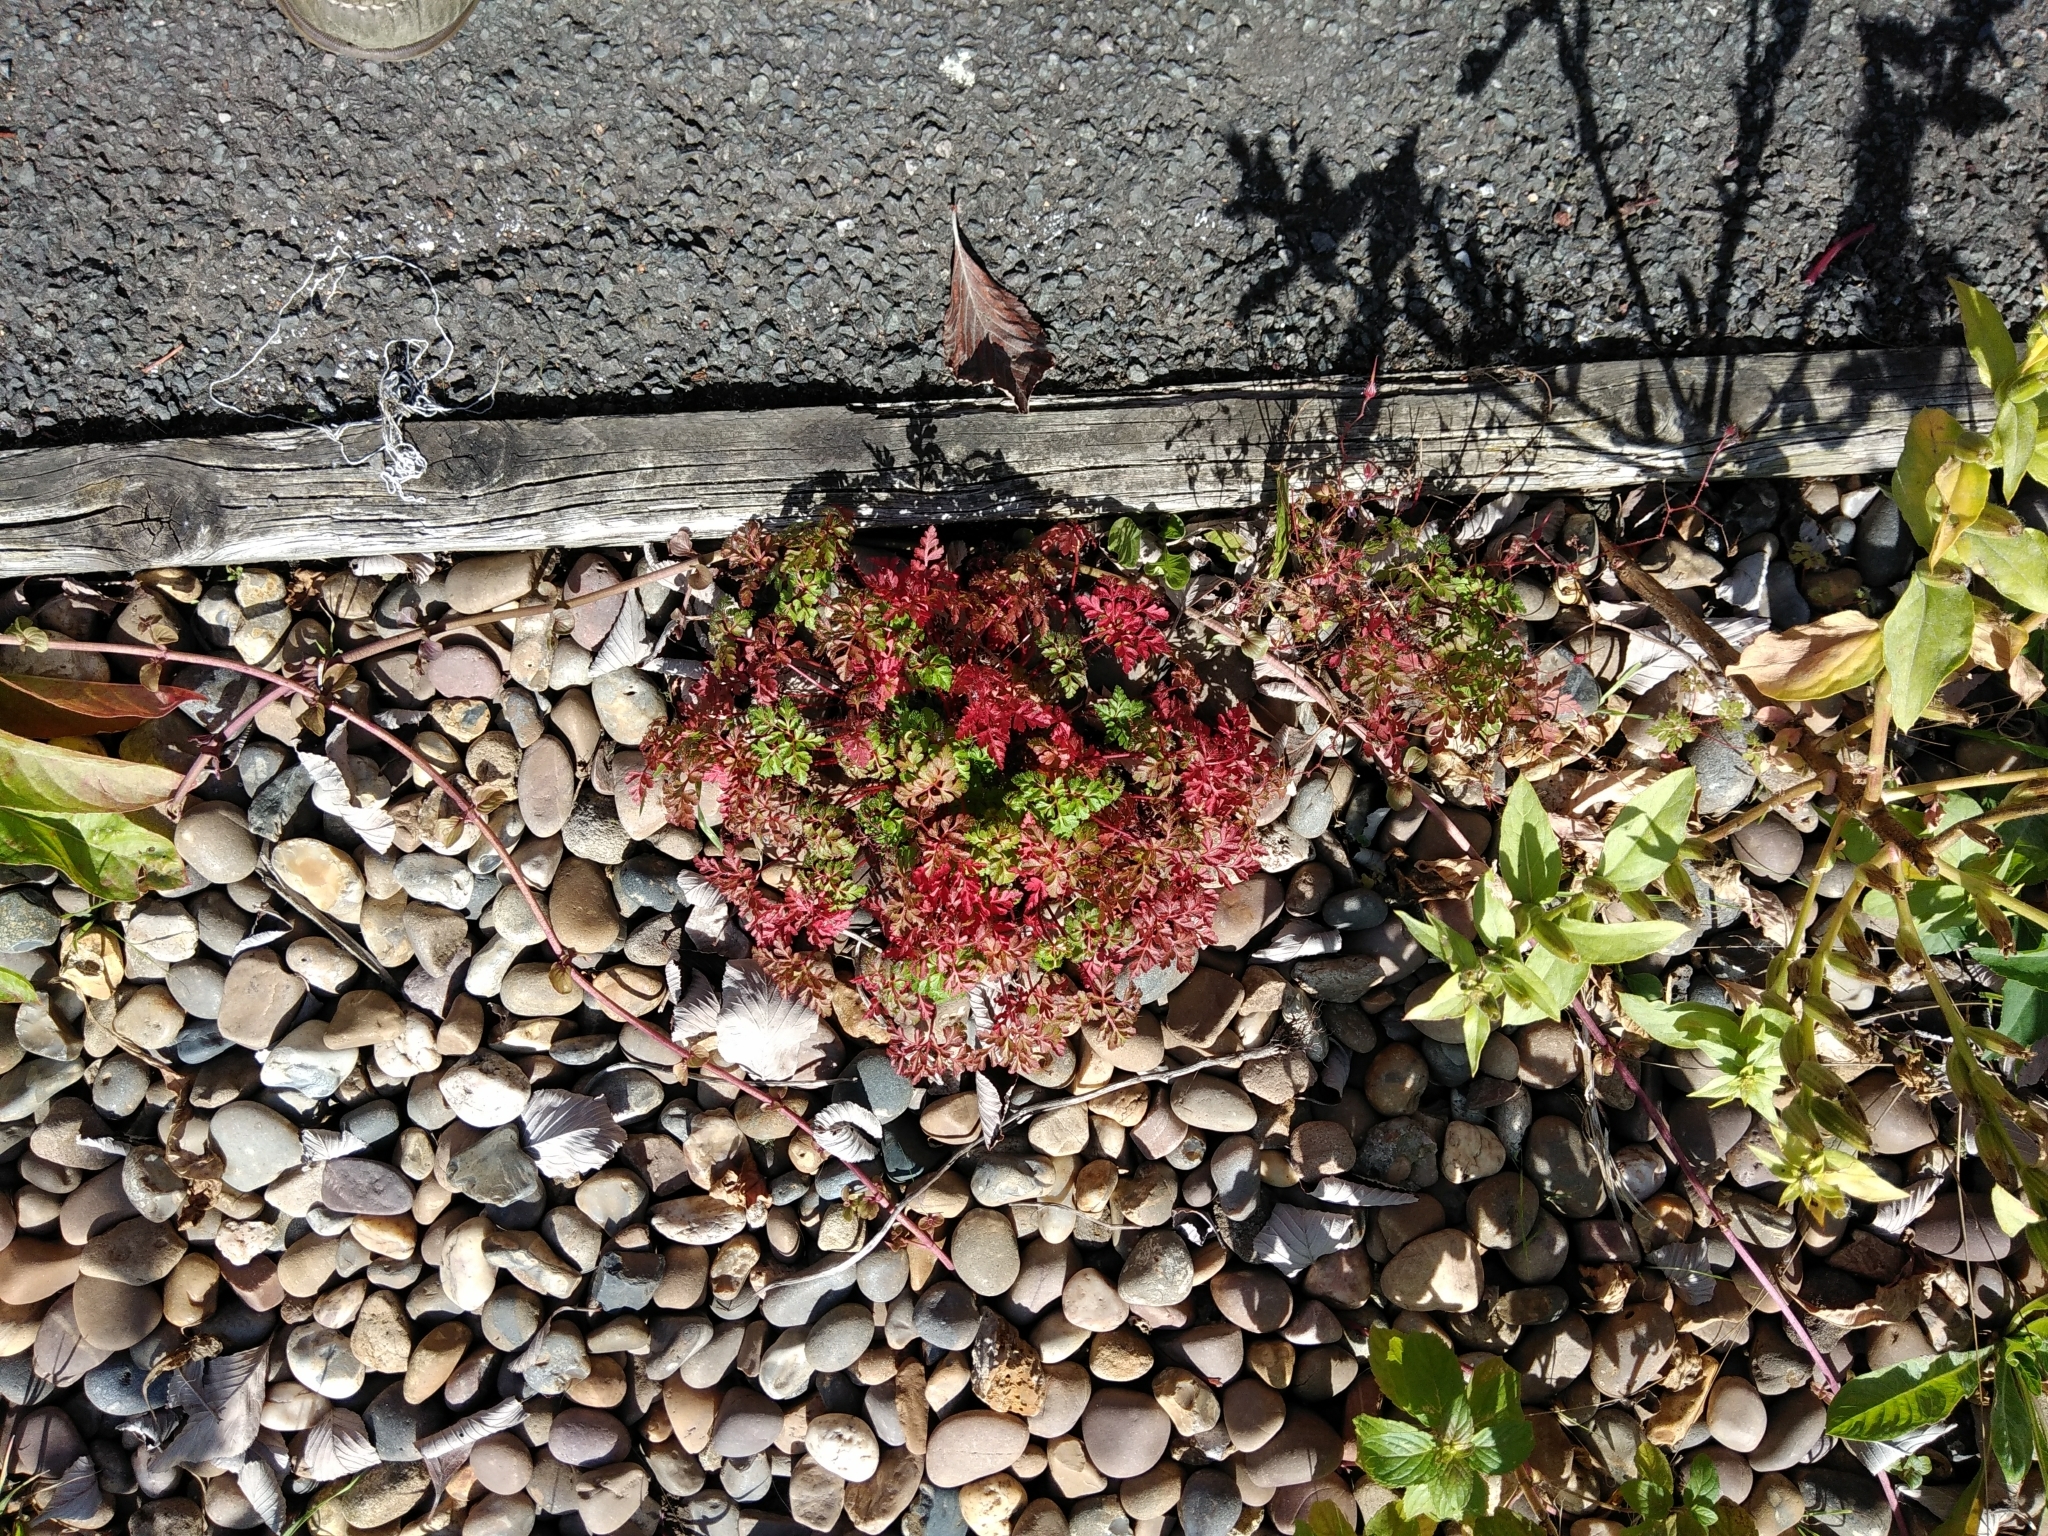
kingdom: Plantae
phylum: Tracheophyta
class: Magnoliopsida
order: Geraniales
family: Geraniaceae
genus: Geranium
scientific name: Geranium robertianum
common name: Herb-robert
